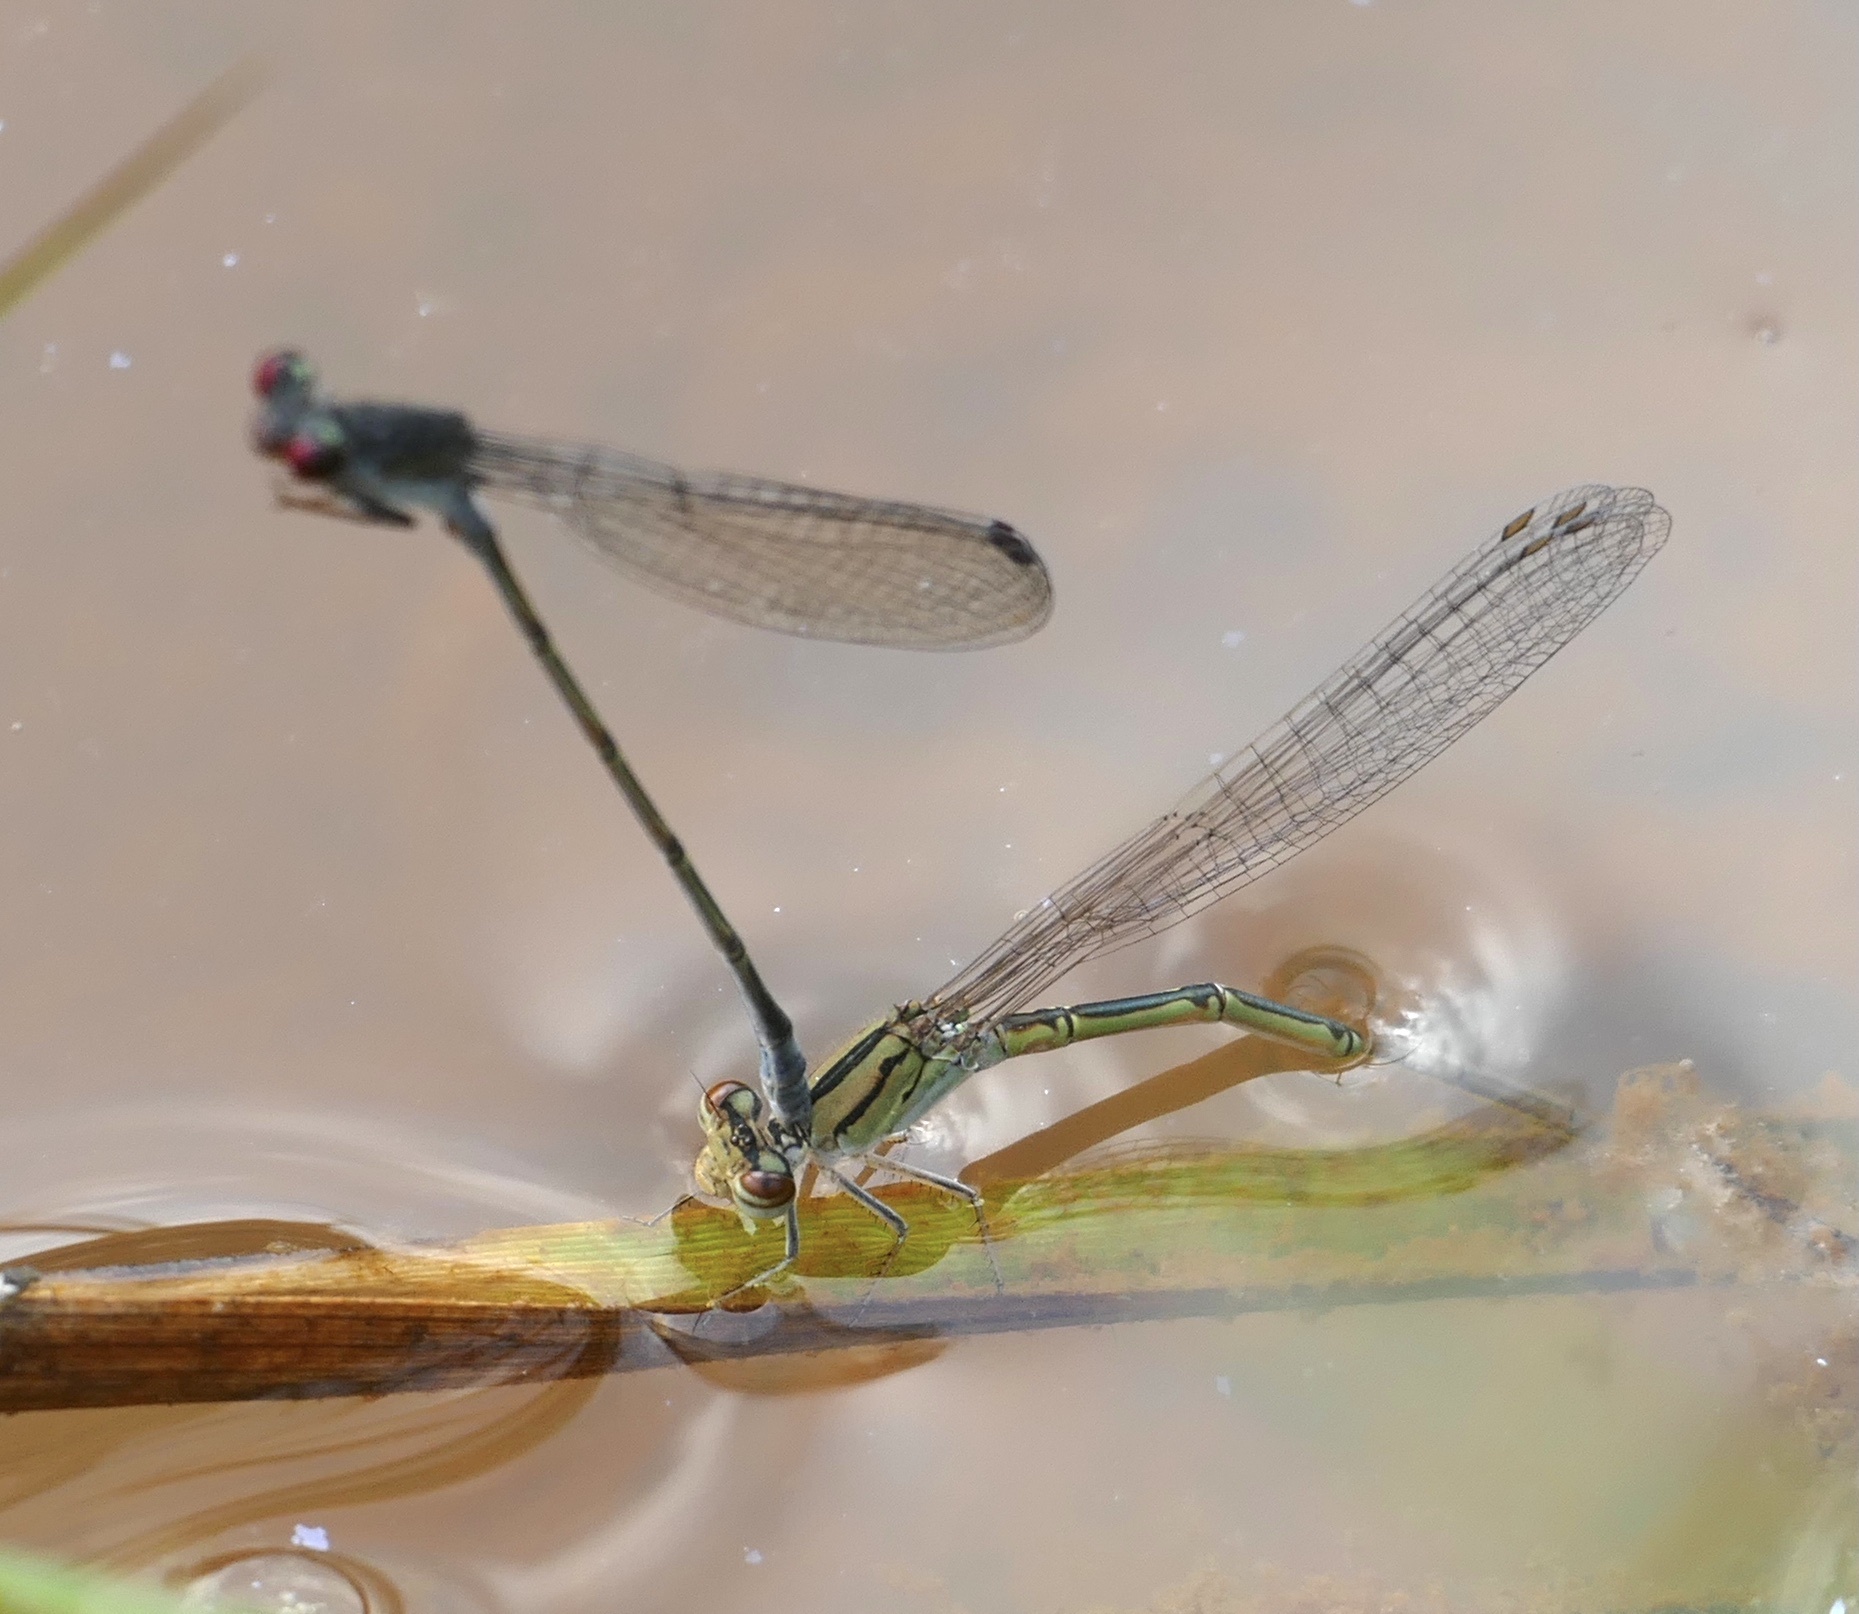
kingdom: Animalia
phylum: Arthropoda
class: Insecta
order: Odonata
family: Coenagrionidae
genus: Pseudagrion
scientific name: Pseudagrion hamoni
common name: Swarthy sprite
